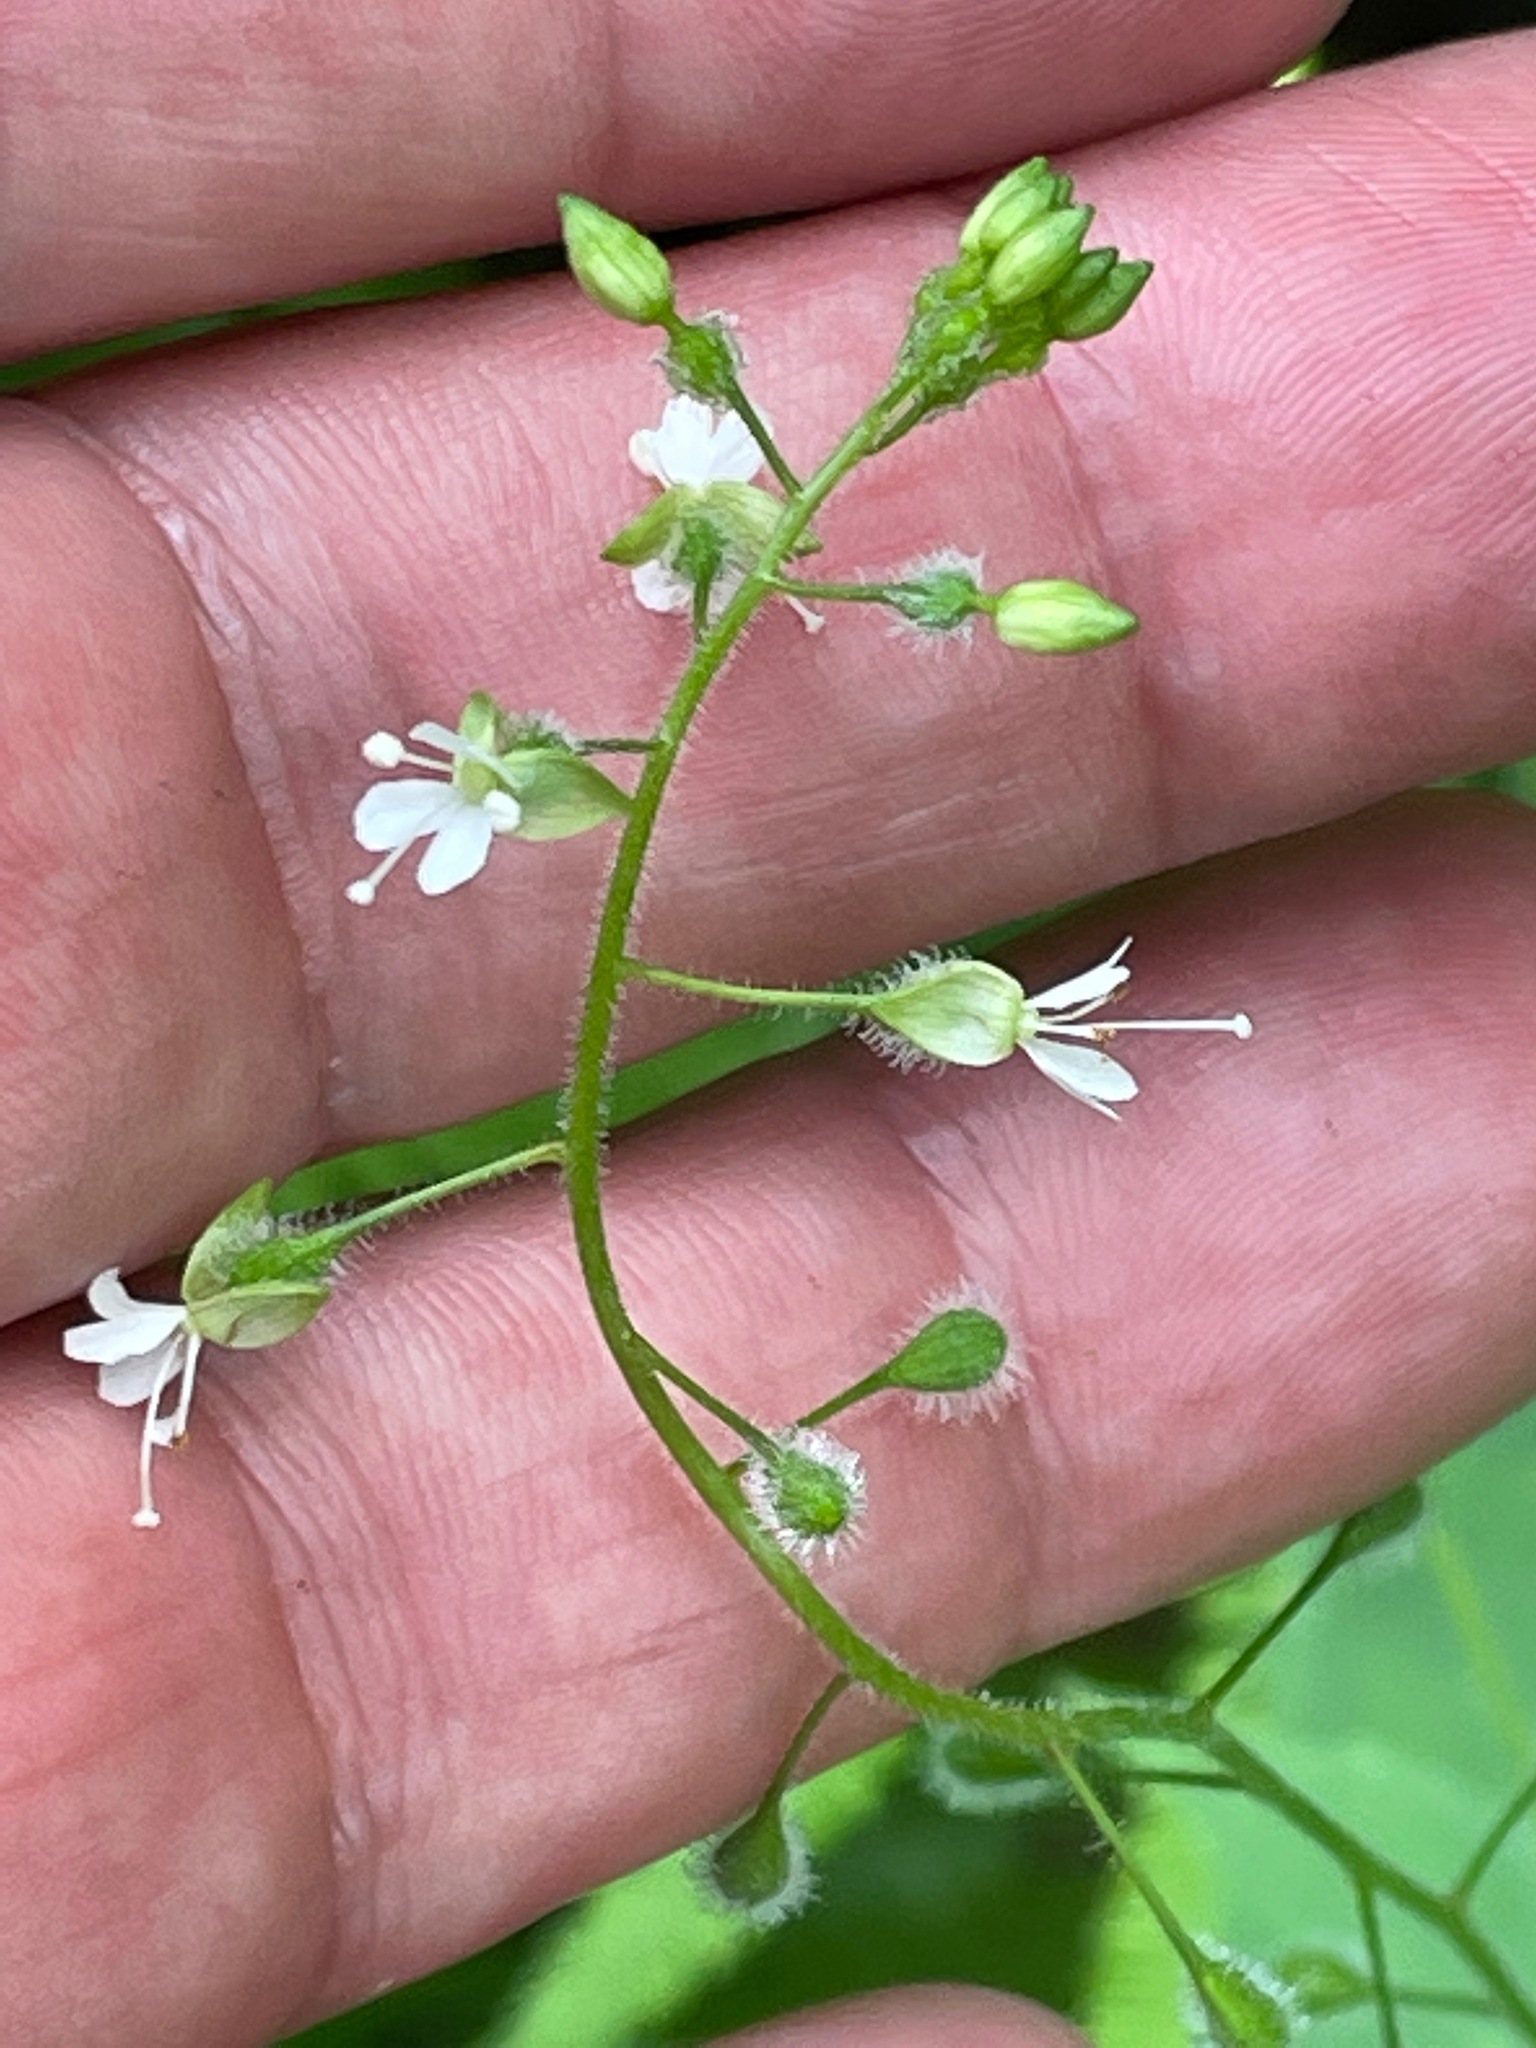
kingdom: Plantae
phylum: Tracheophyta
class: Magnoliopsida
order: Myrtales
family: Onagraceae
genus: Circaea
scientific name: Circaea canadensis
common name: Broad-leaved enchanter's nightshade
